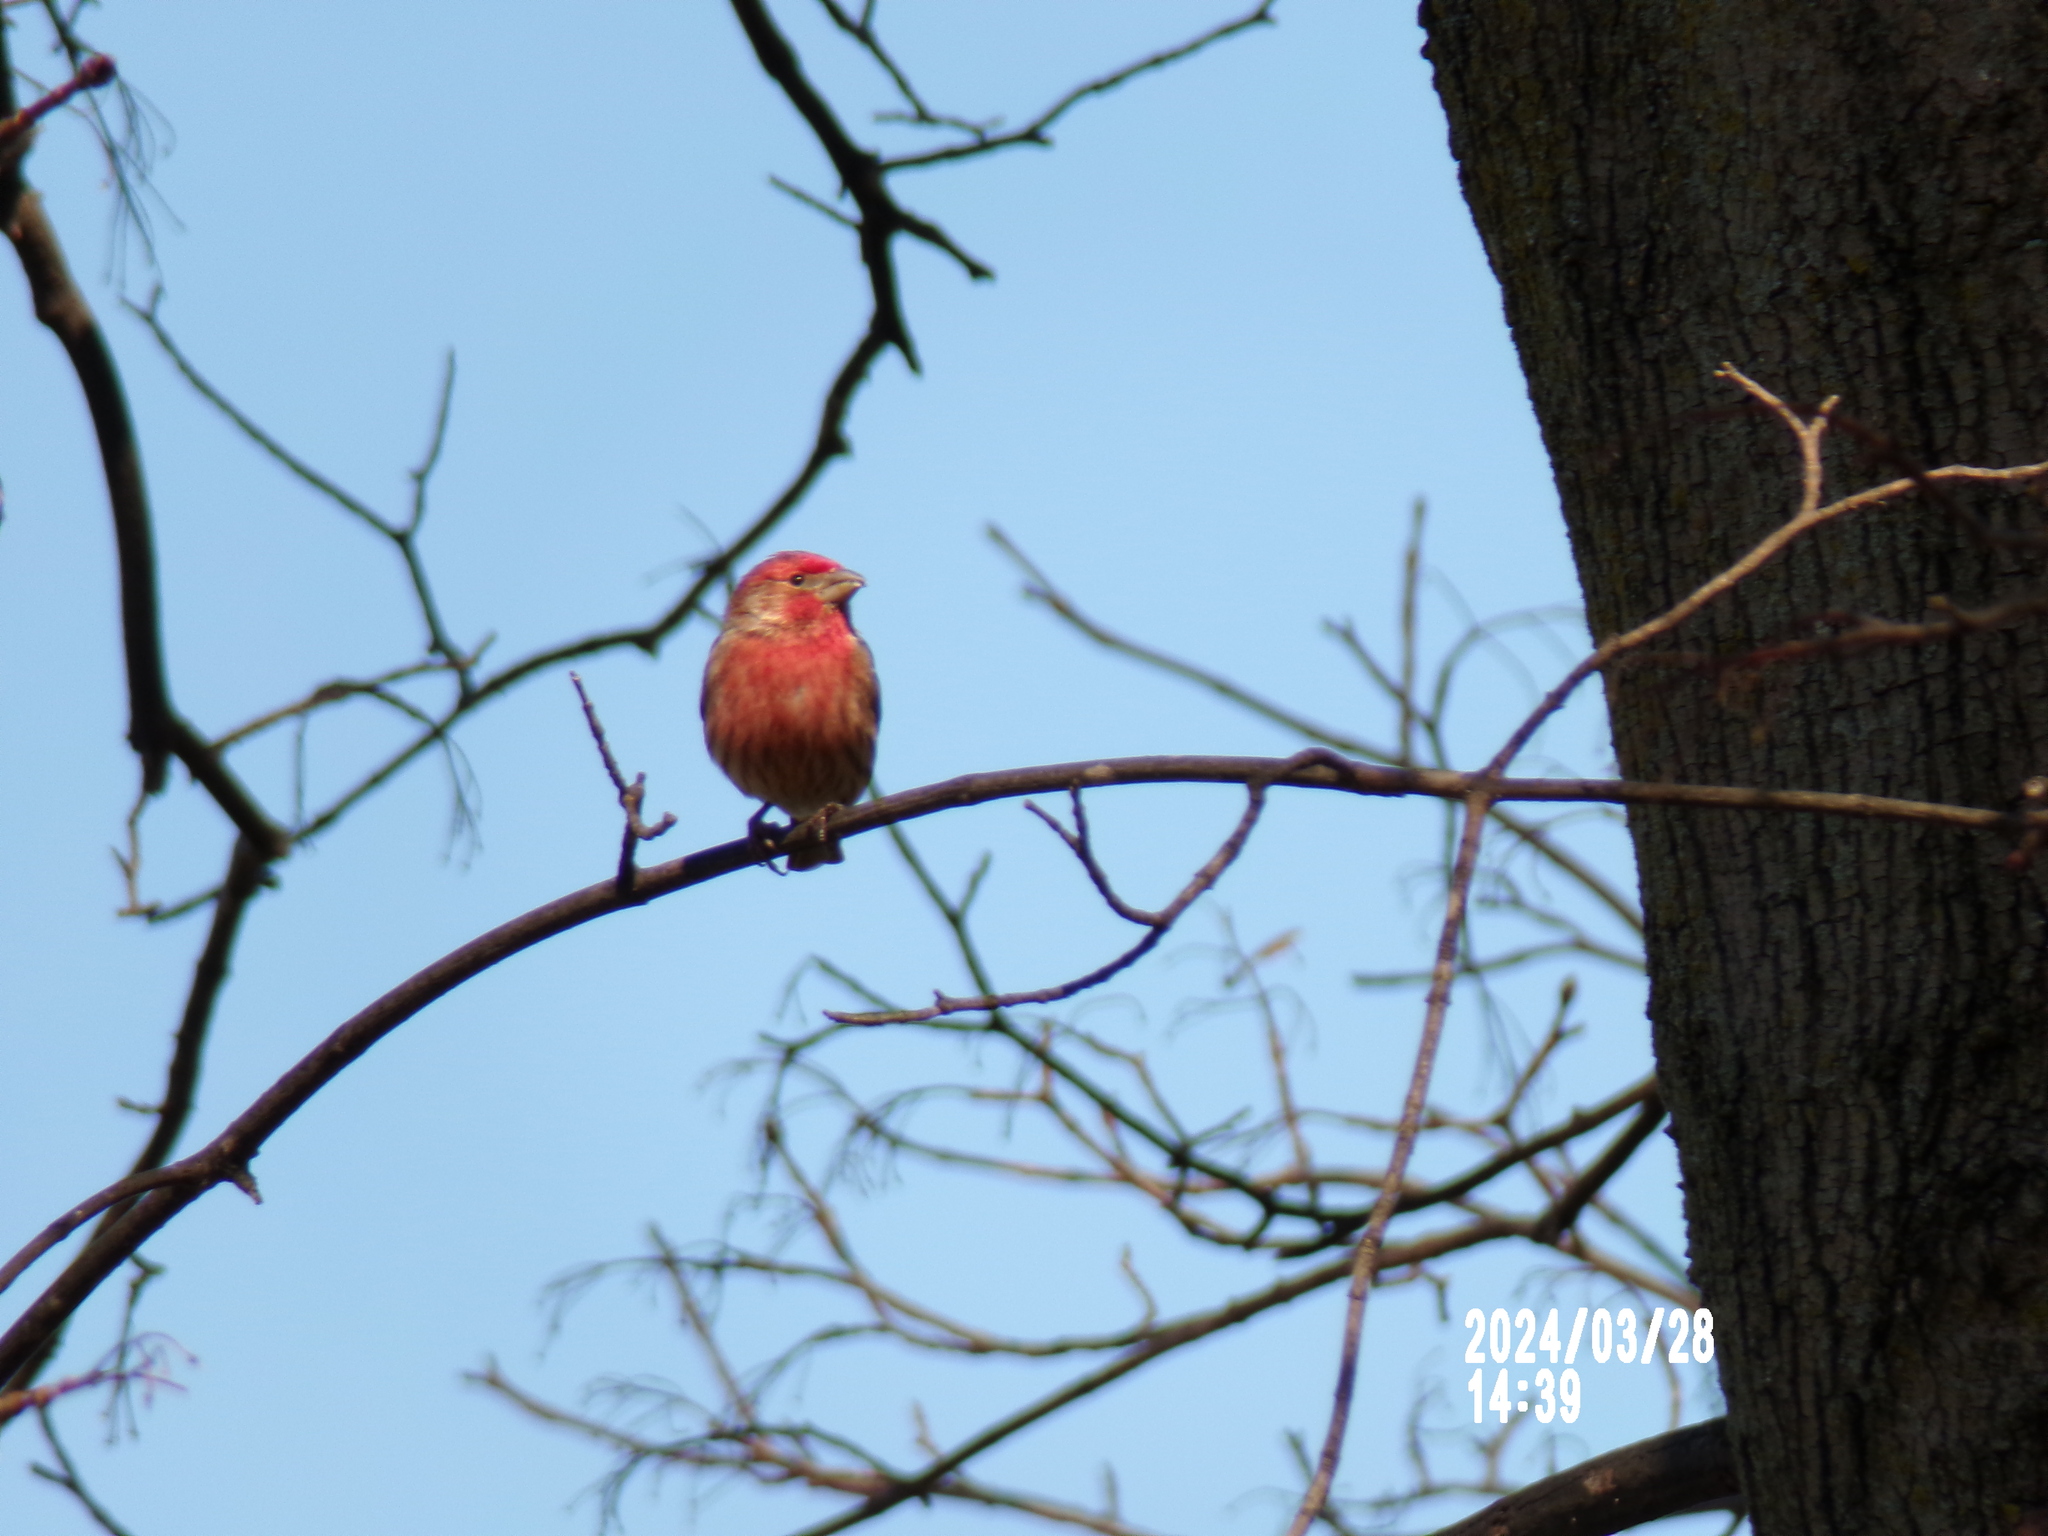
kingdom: Animalia
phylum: Chordata
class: Aves
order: Passeriformes
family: Fringillidae
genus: Haemorhous
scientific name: Haemorhous mexicanus
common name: House finch
